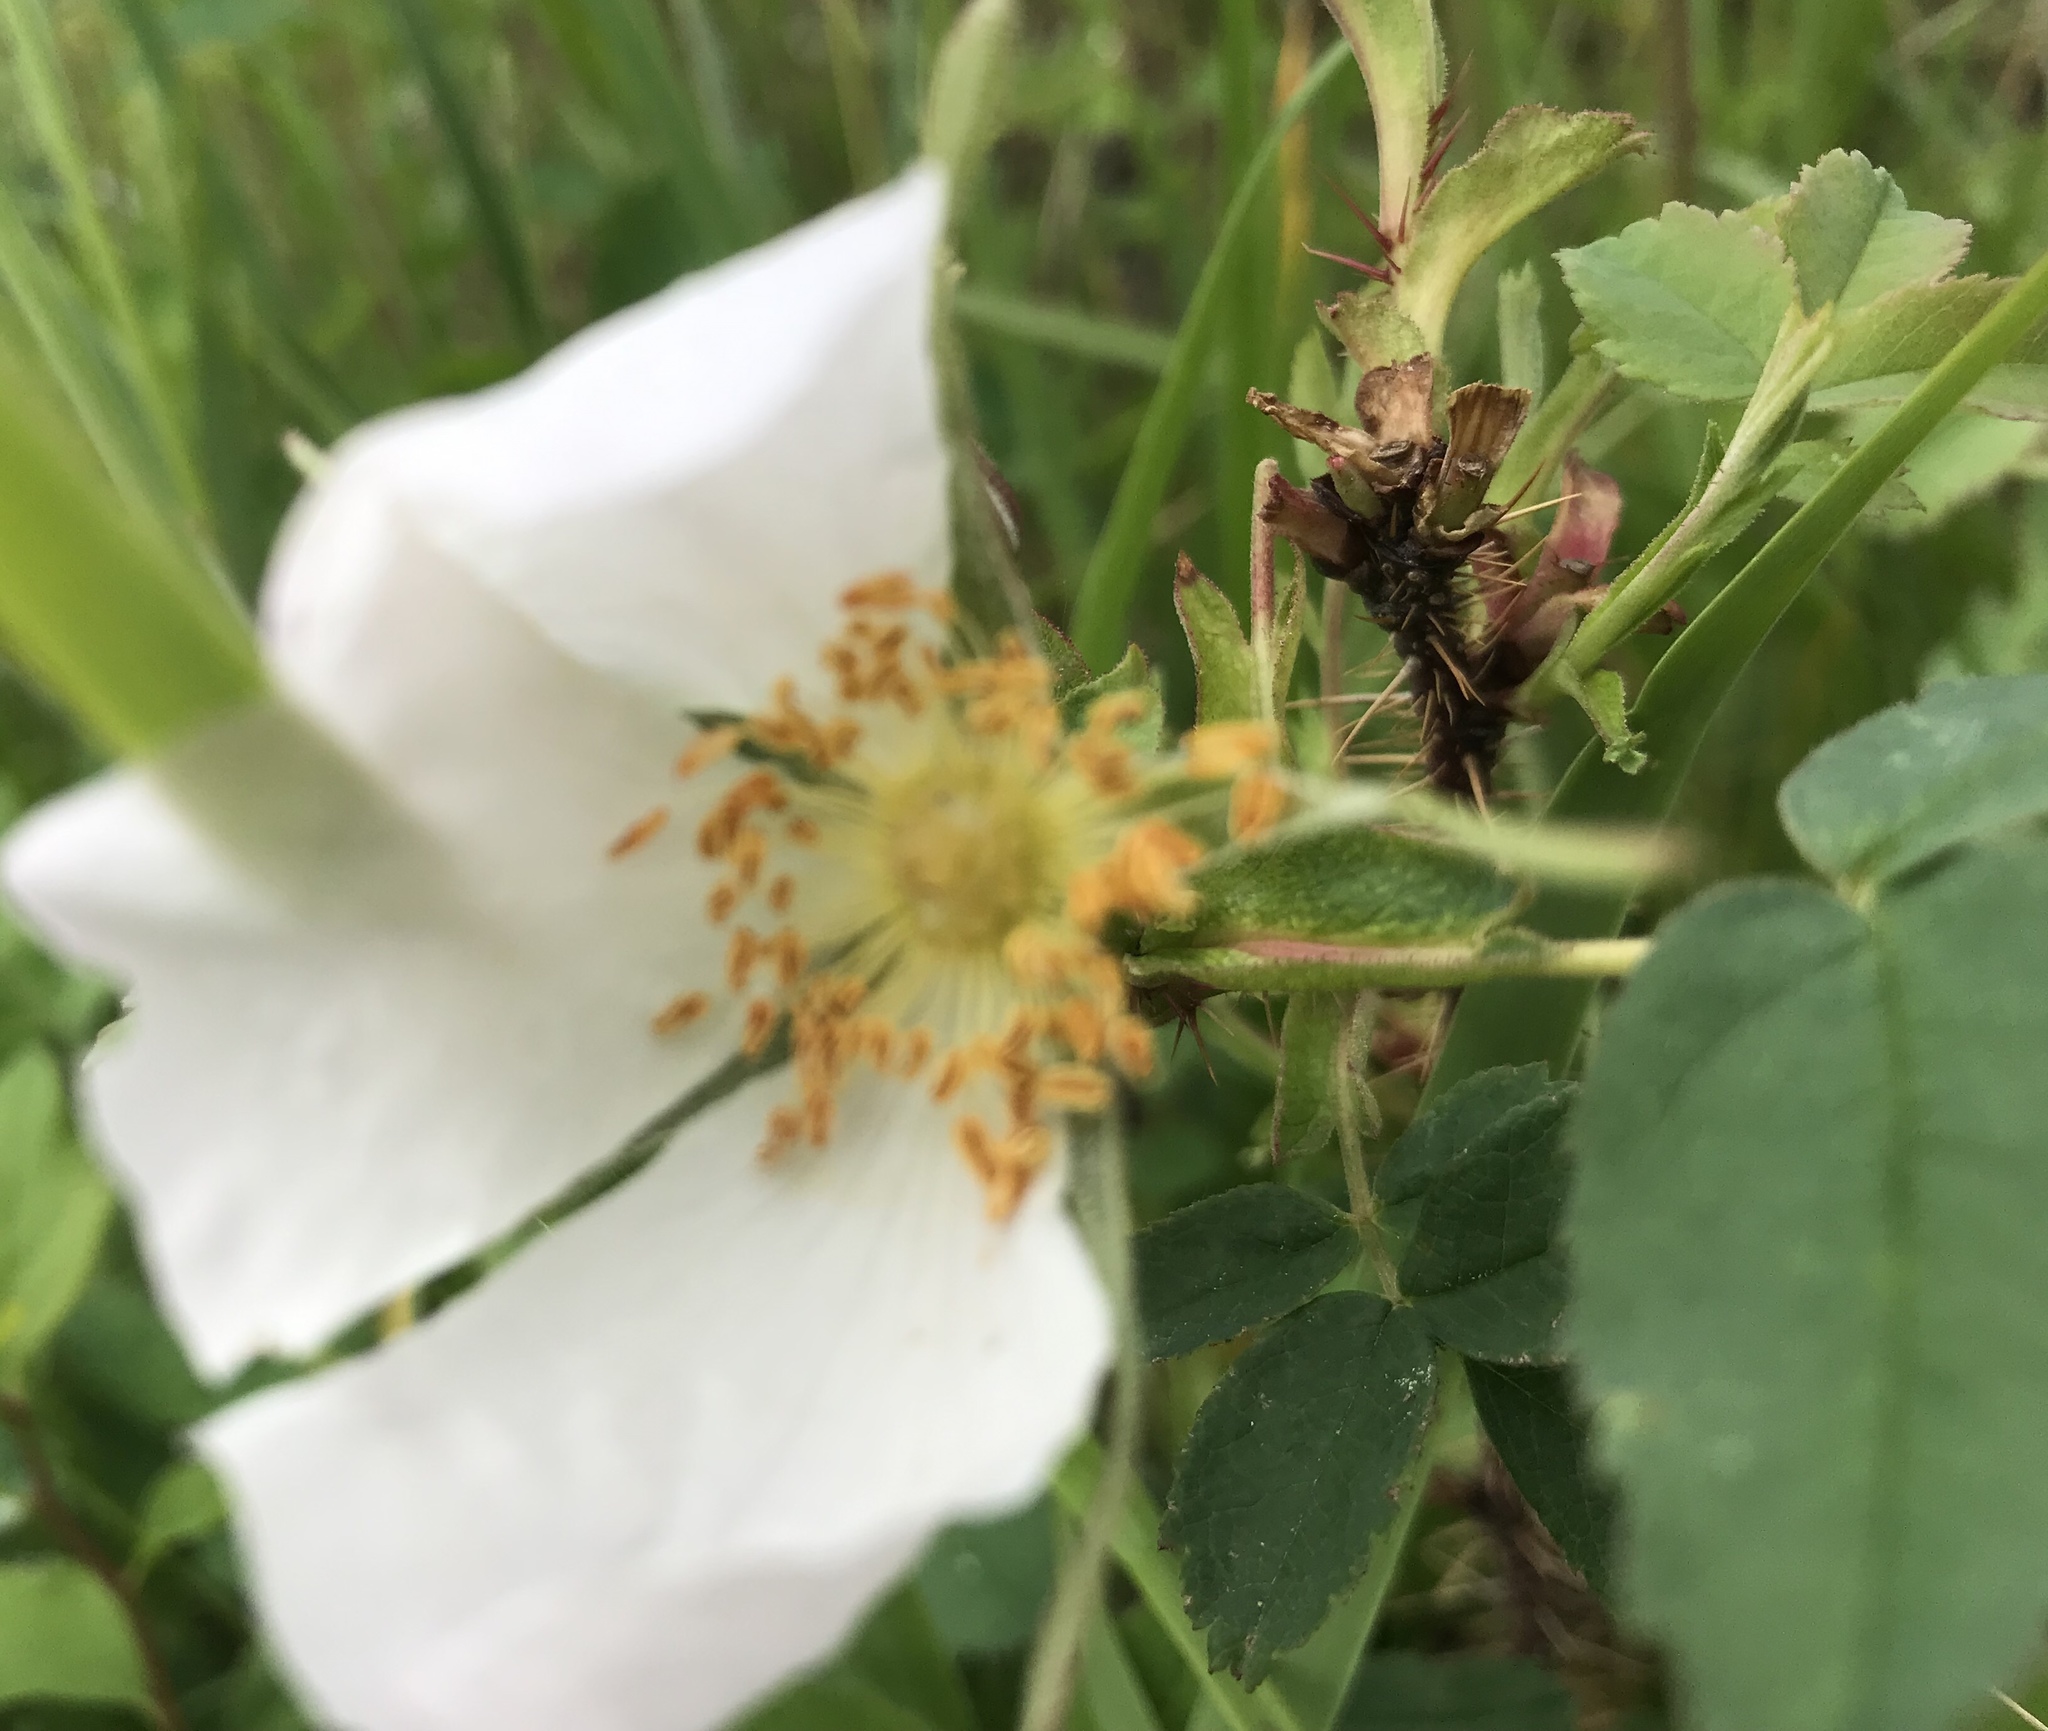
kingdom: Plantae
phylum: Tracheophyta
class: Magnoliopsida
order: Rosales
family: Rosaceae
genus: Rosa
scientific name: Rosa acicularis
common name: Prickly rose
